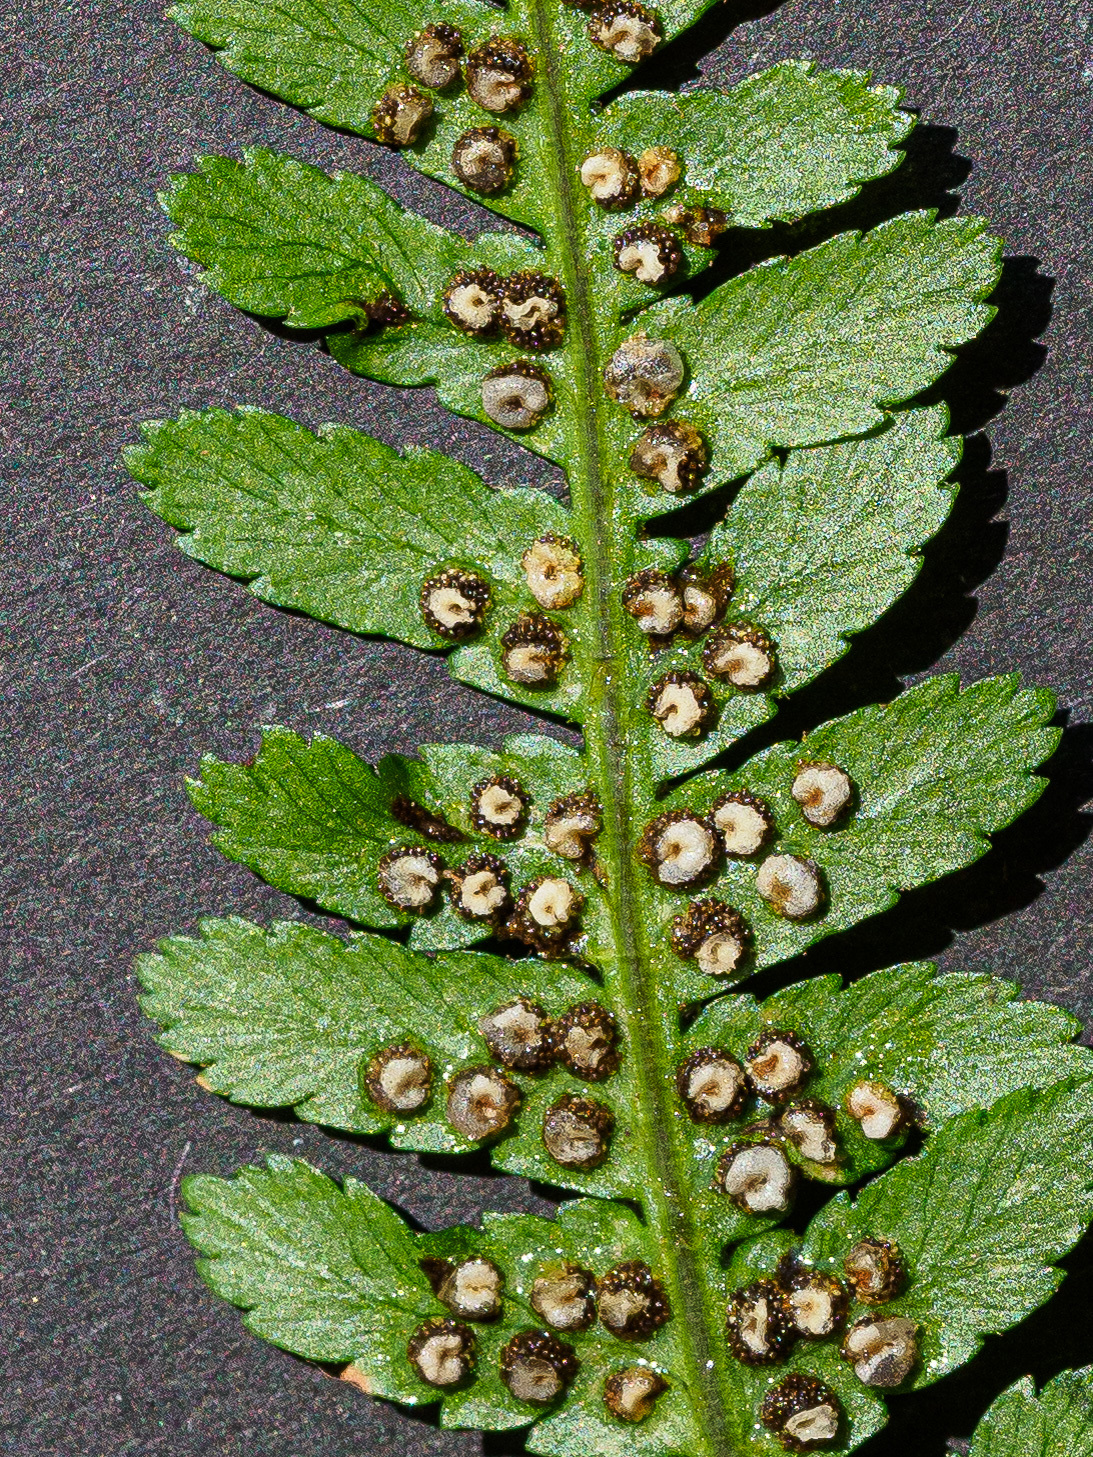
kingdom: Plantae
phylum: Tracheophyta
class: Polypodiopsida
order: Polypodiales
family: Dryopteridaceae
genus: Dryopteris
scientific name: Dryopteris filix-mas
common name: Male fern
